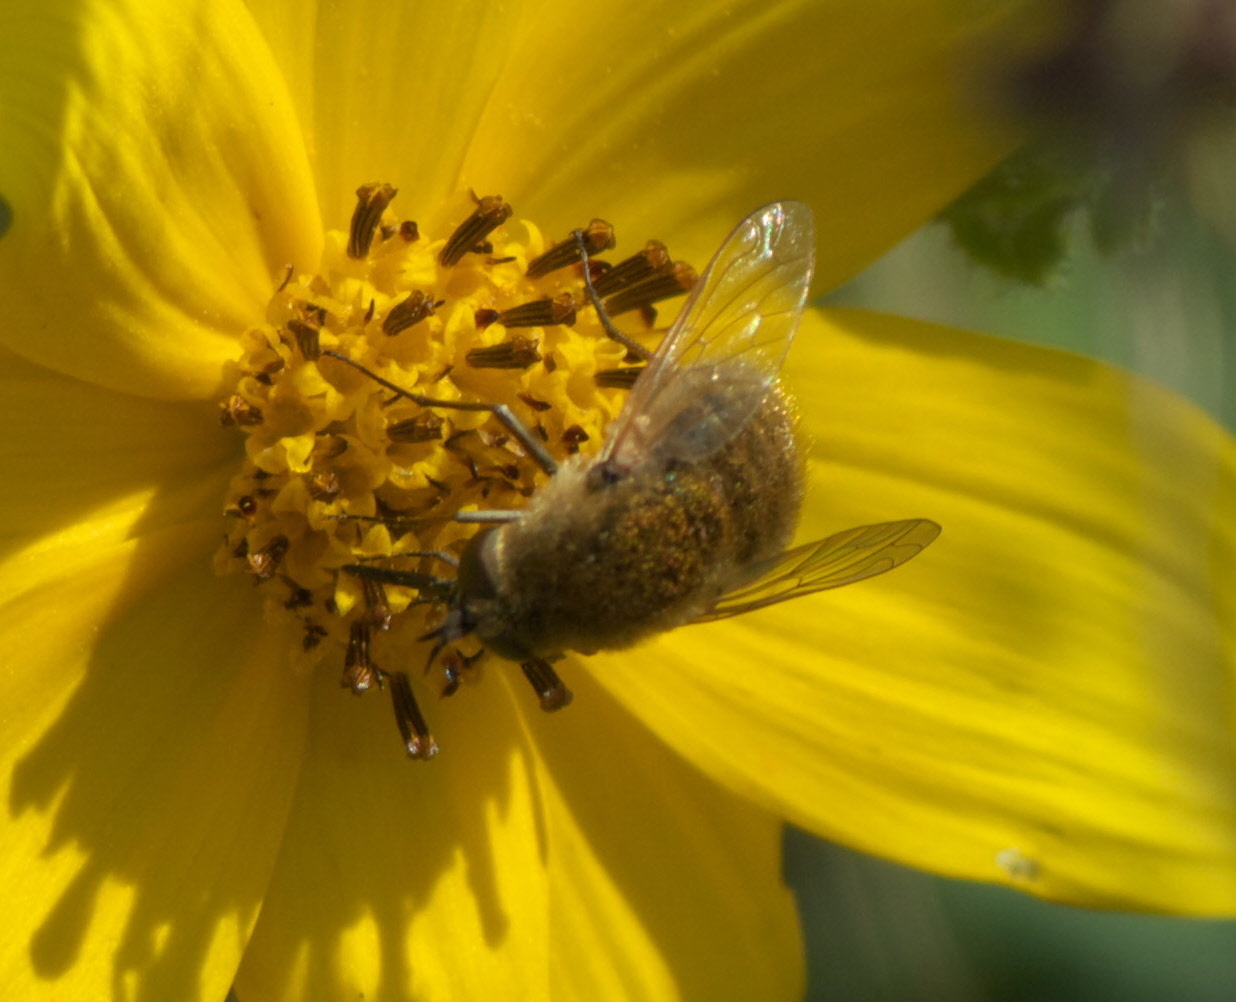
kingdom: Animalia
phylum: Arthropoda
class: Insecta
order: Diptera
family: Bombyliidae
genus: Sparnopolius
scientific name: Sparnopolius confusus
